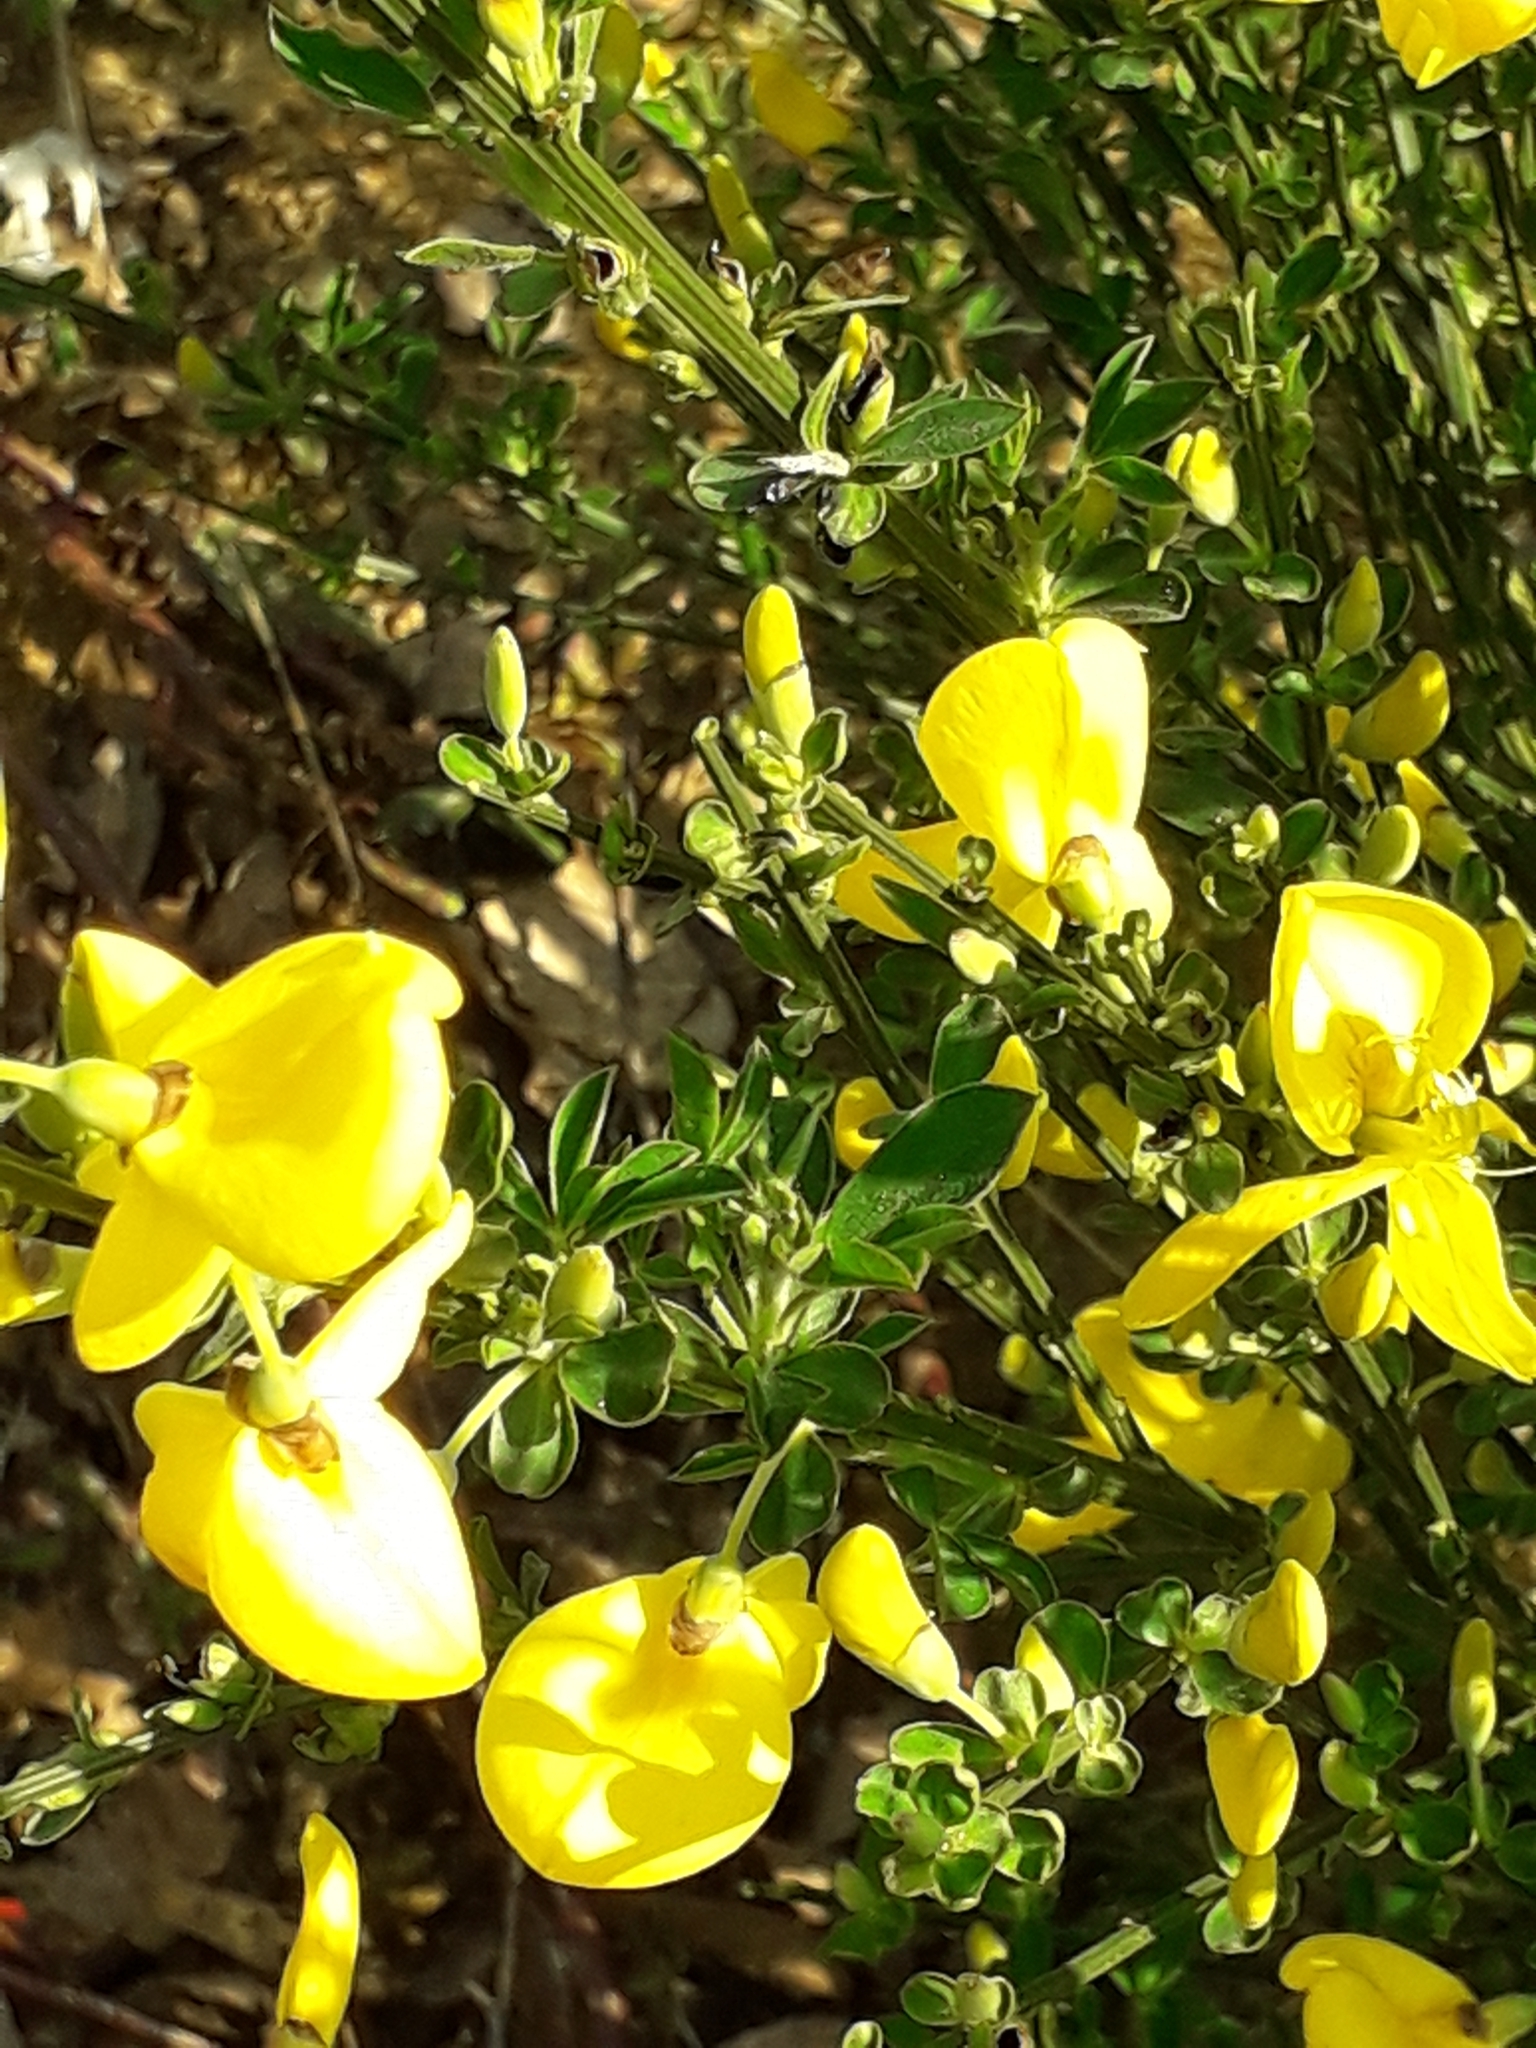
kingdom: Plantae
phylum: Tracheophyta
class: Magnoliopsida
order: Fabales
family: Fabaceae
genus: Cytisus
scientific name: Cytisus scoparius
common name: Scotch broom
